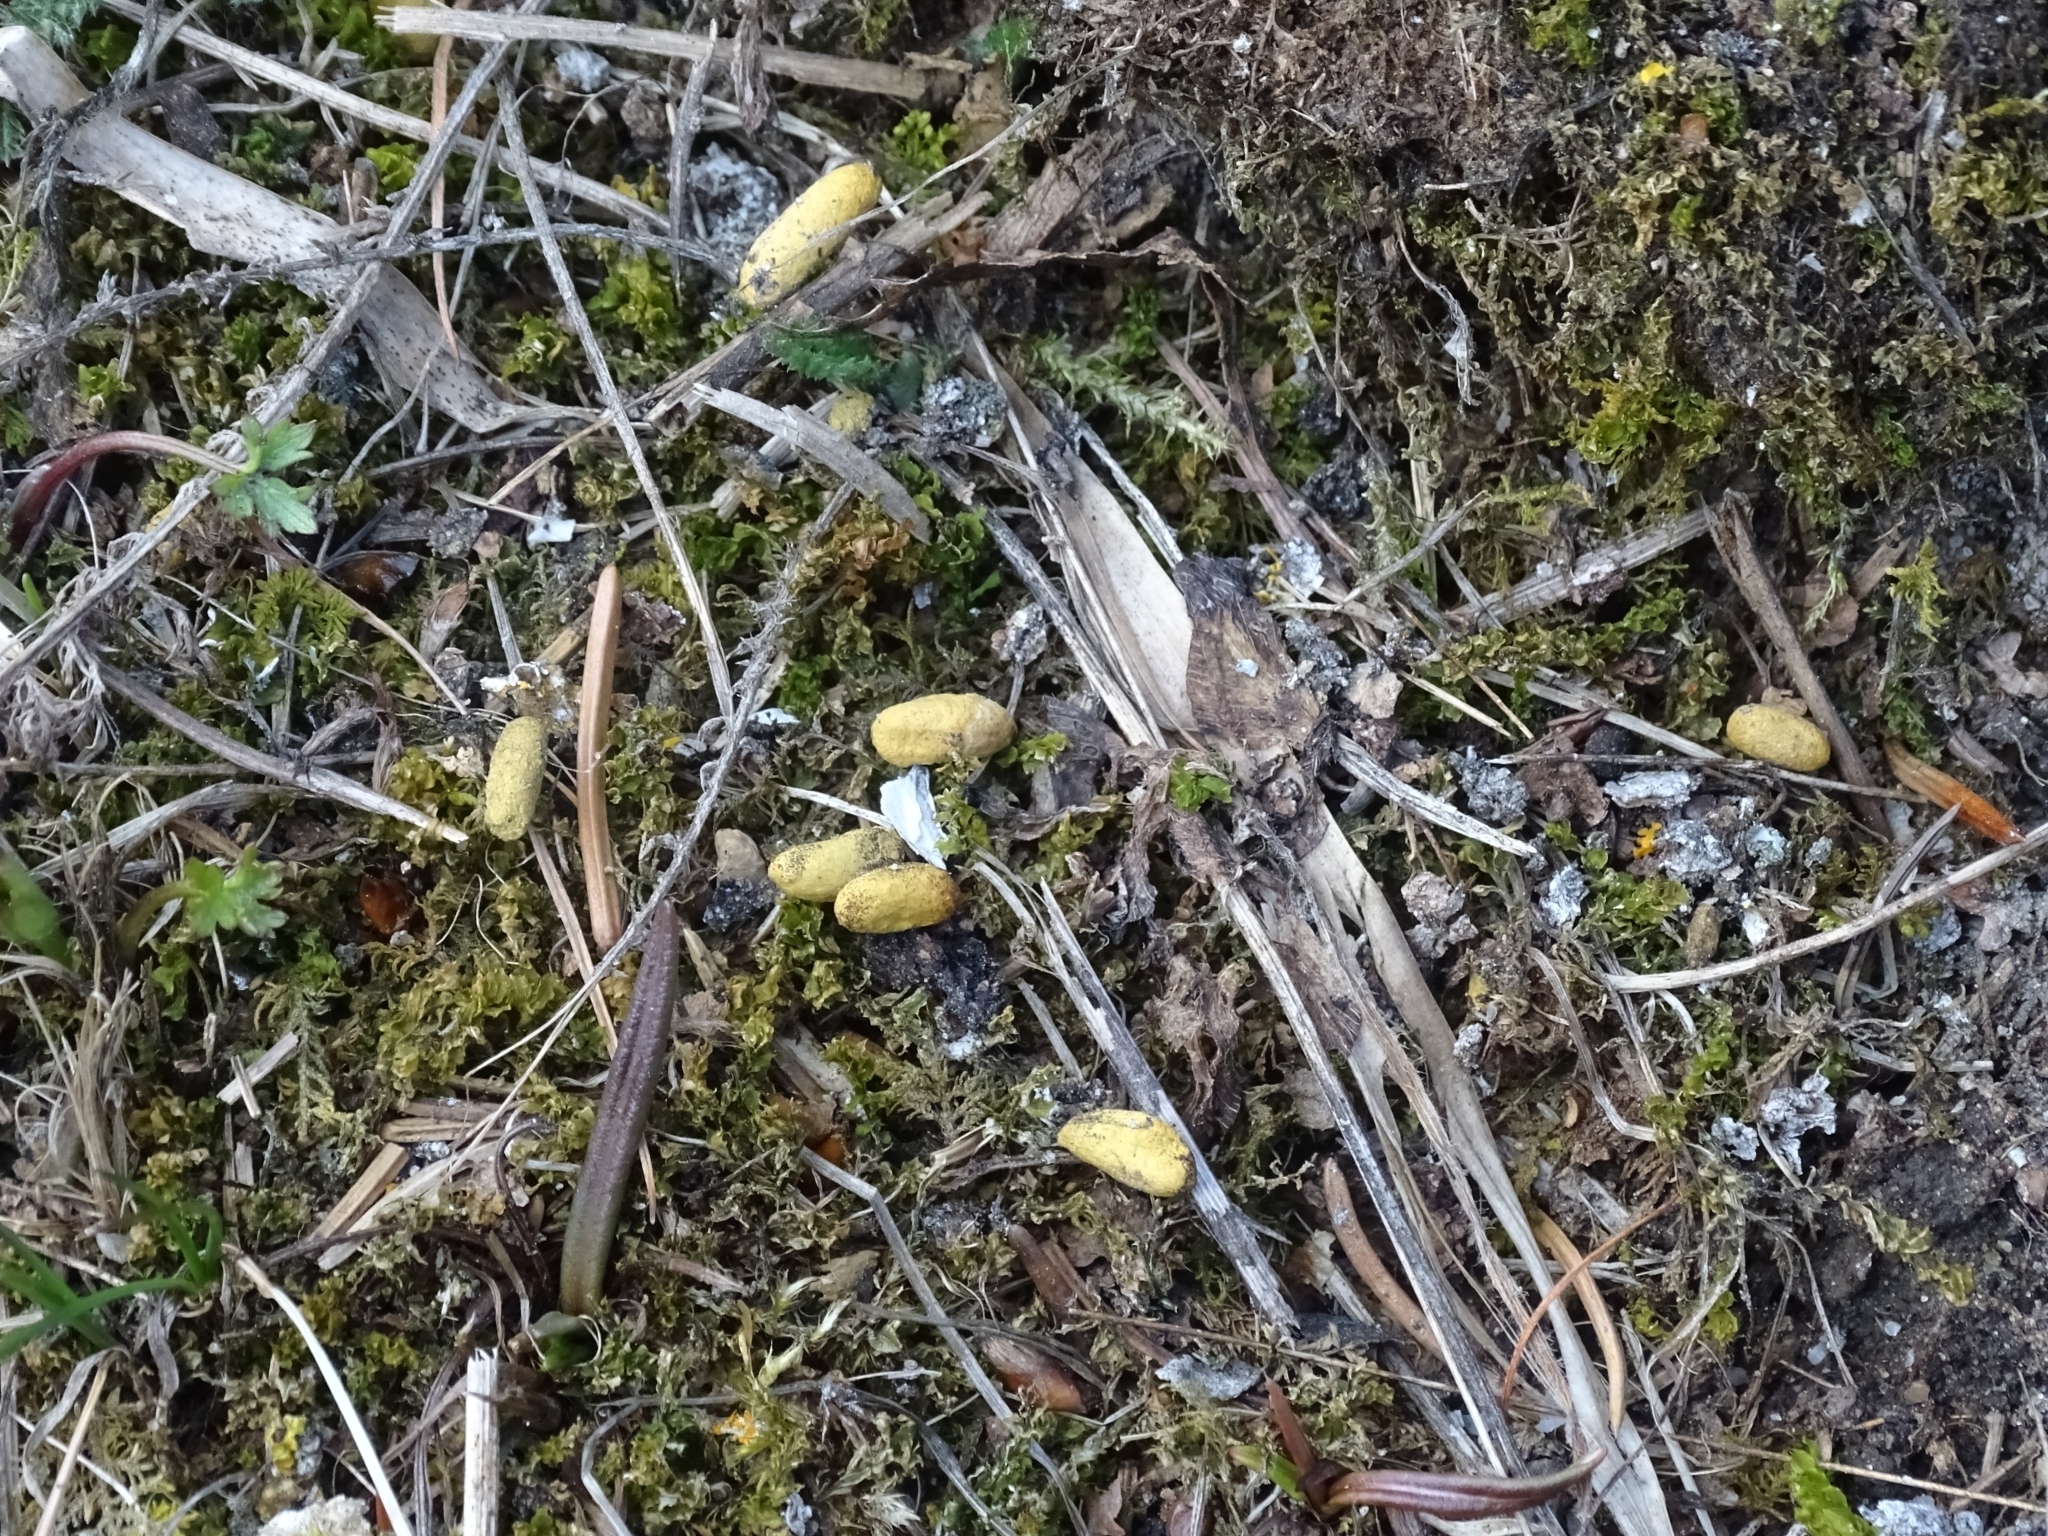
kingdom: Animalia
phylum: Chordata
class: Mammalia
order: Rodentia
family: Sciuridae
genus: Pteromys
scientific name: Pteromys volans
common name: Siberian flying squirrel
